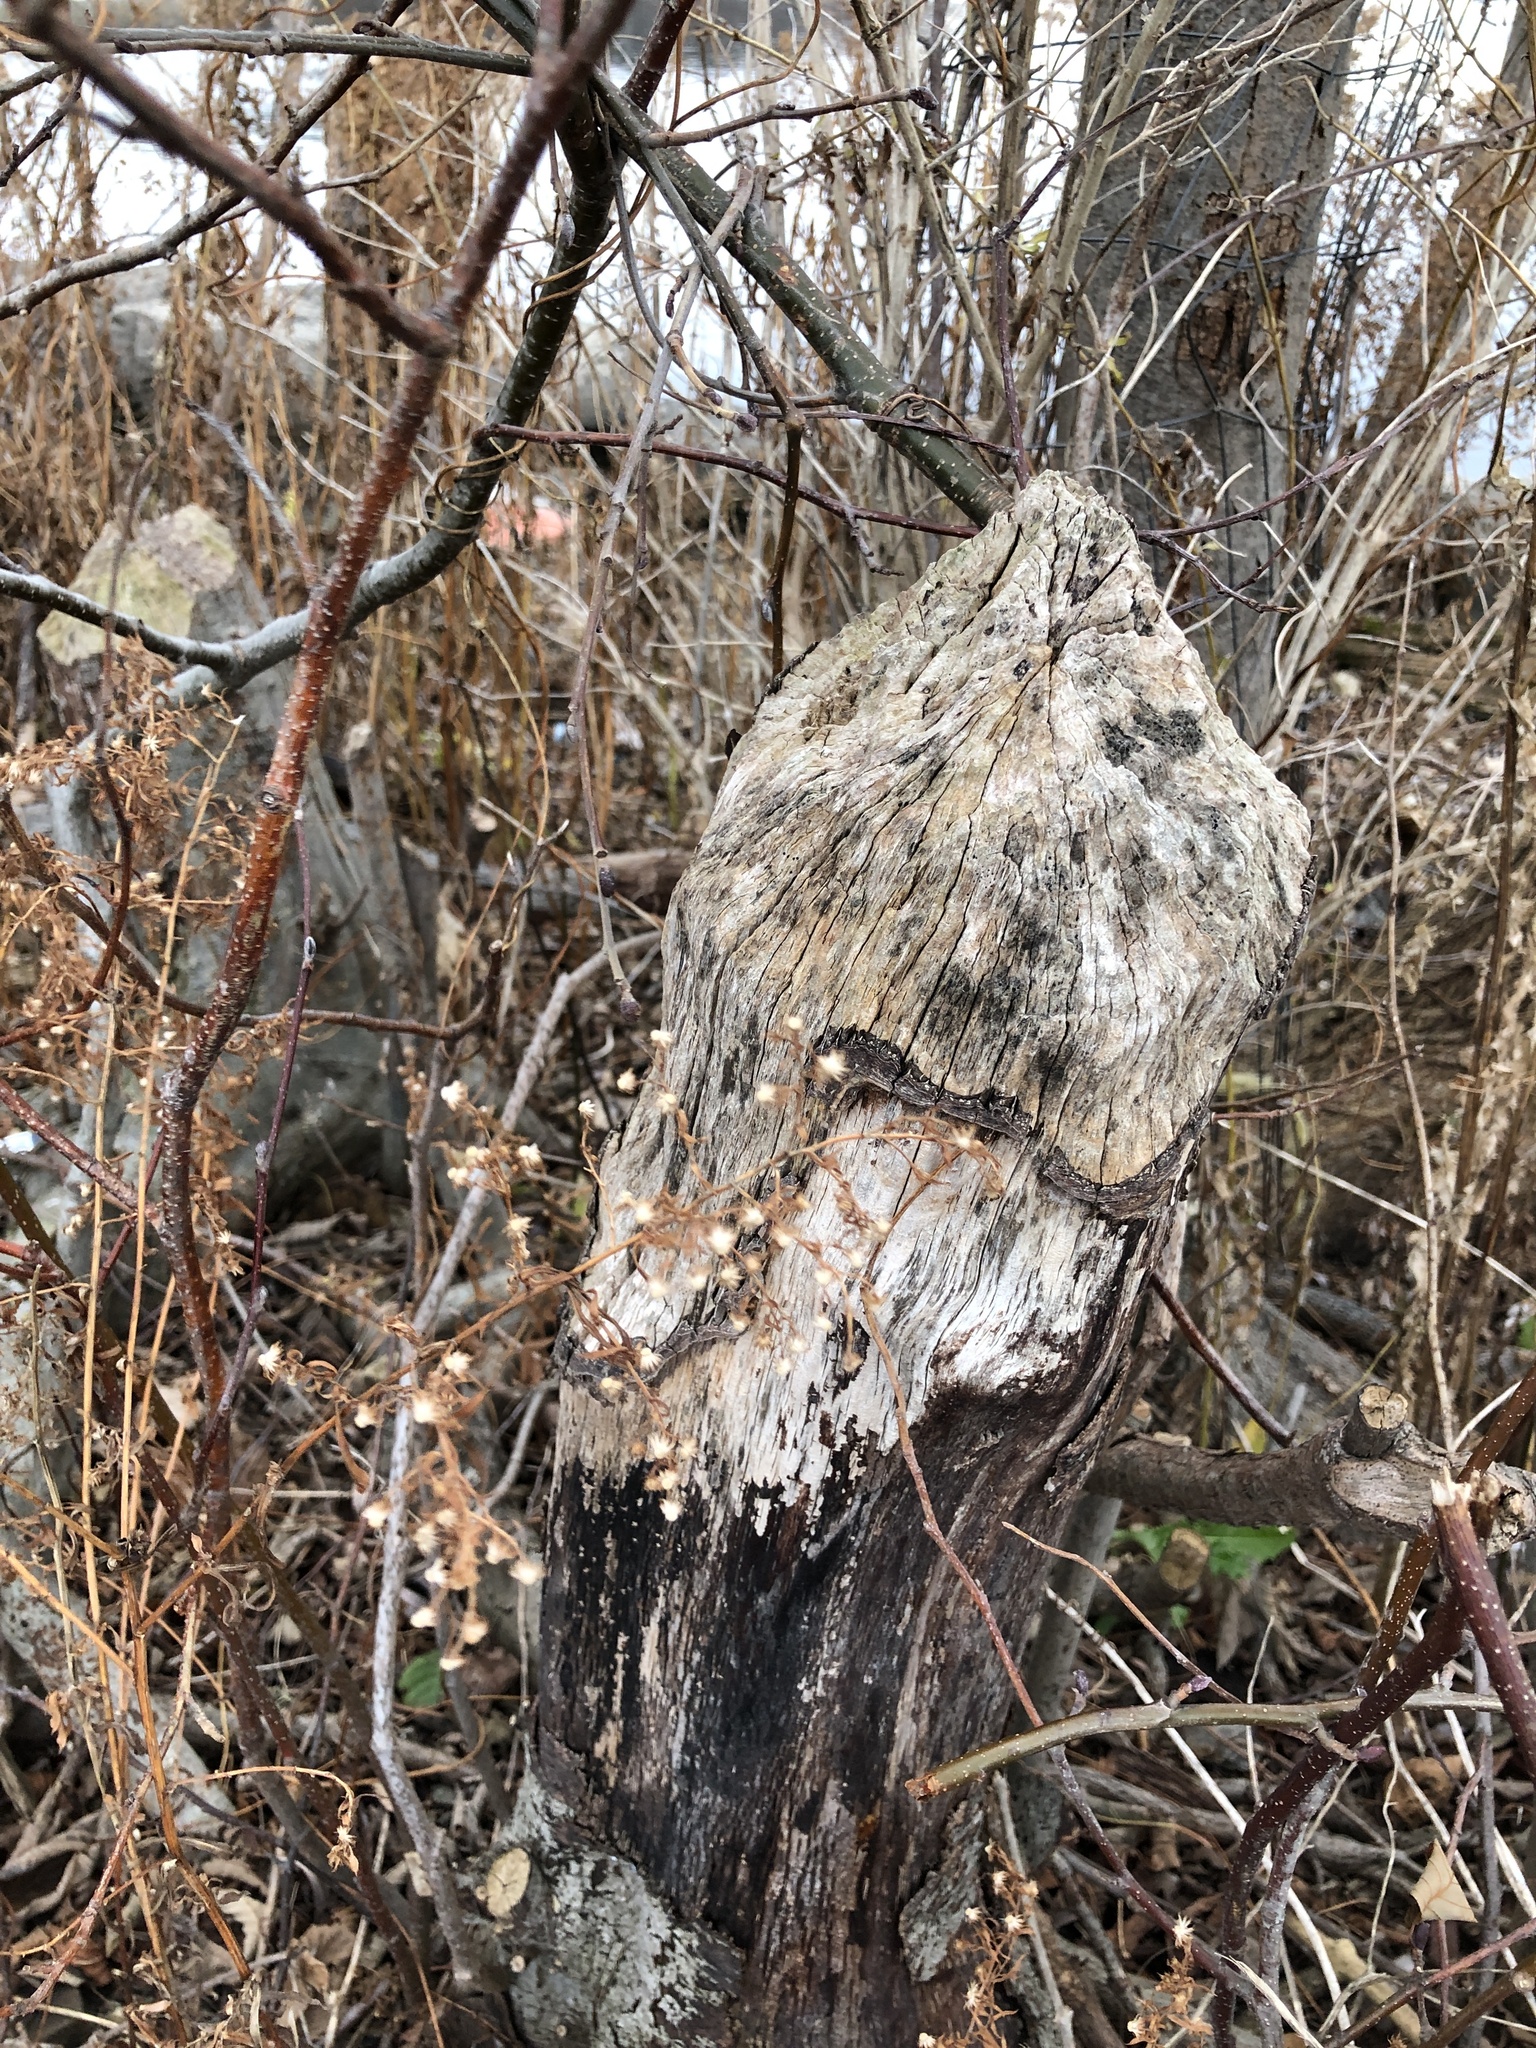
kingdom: Animalia
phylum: Chordata
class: Mammalia
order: Rodentia
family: Castoridae
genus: Castor
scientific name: Castor canadensis
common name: American beaver
